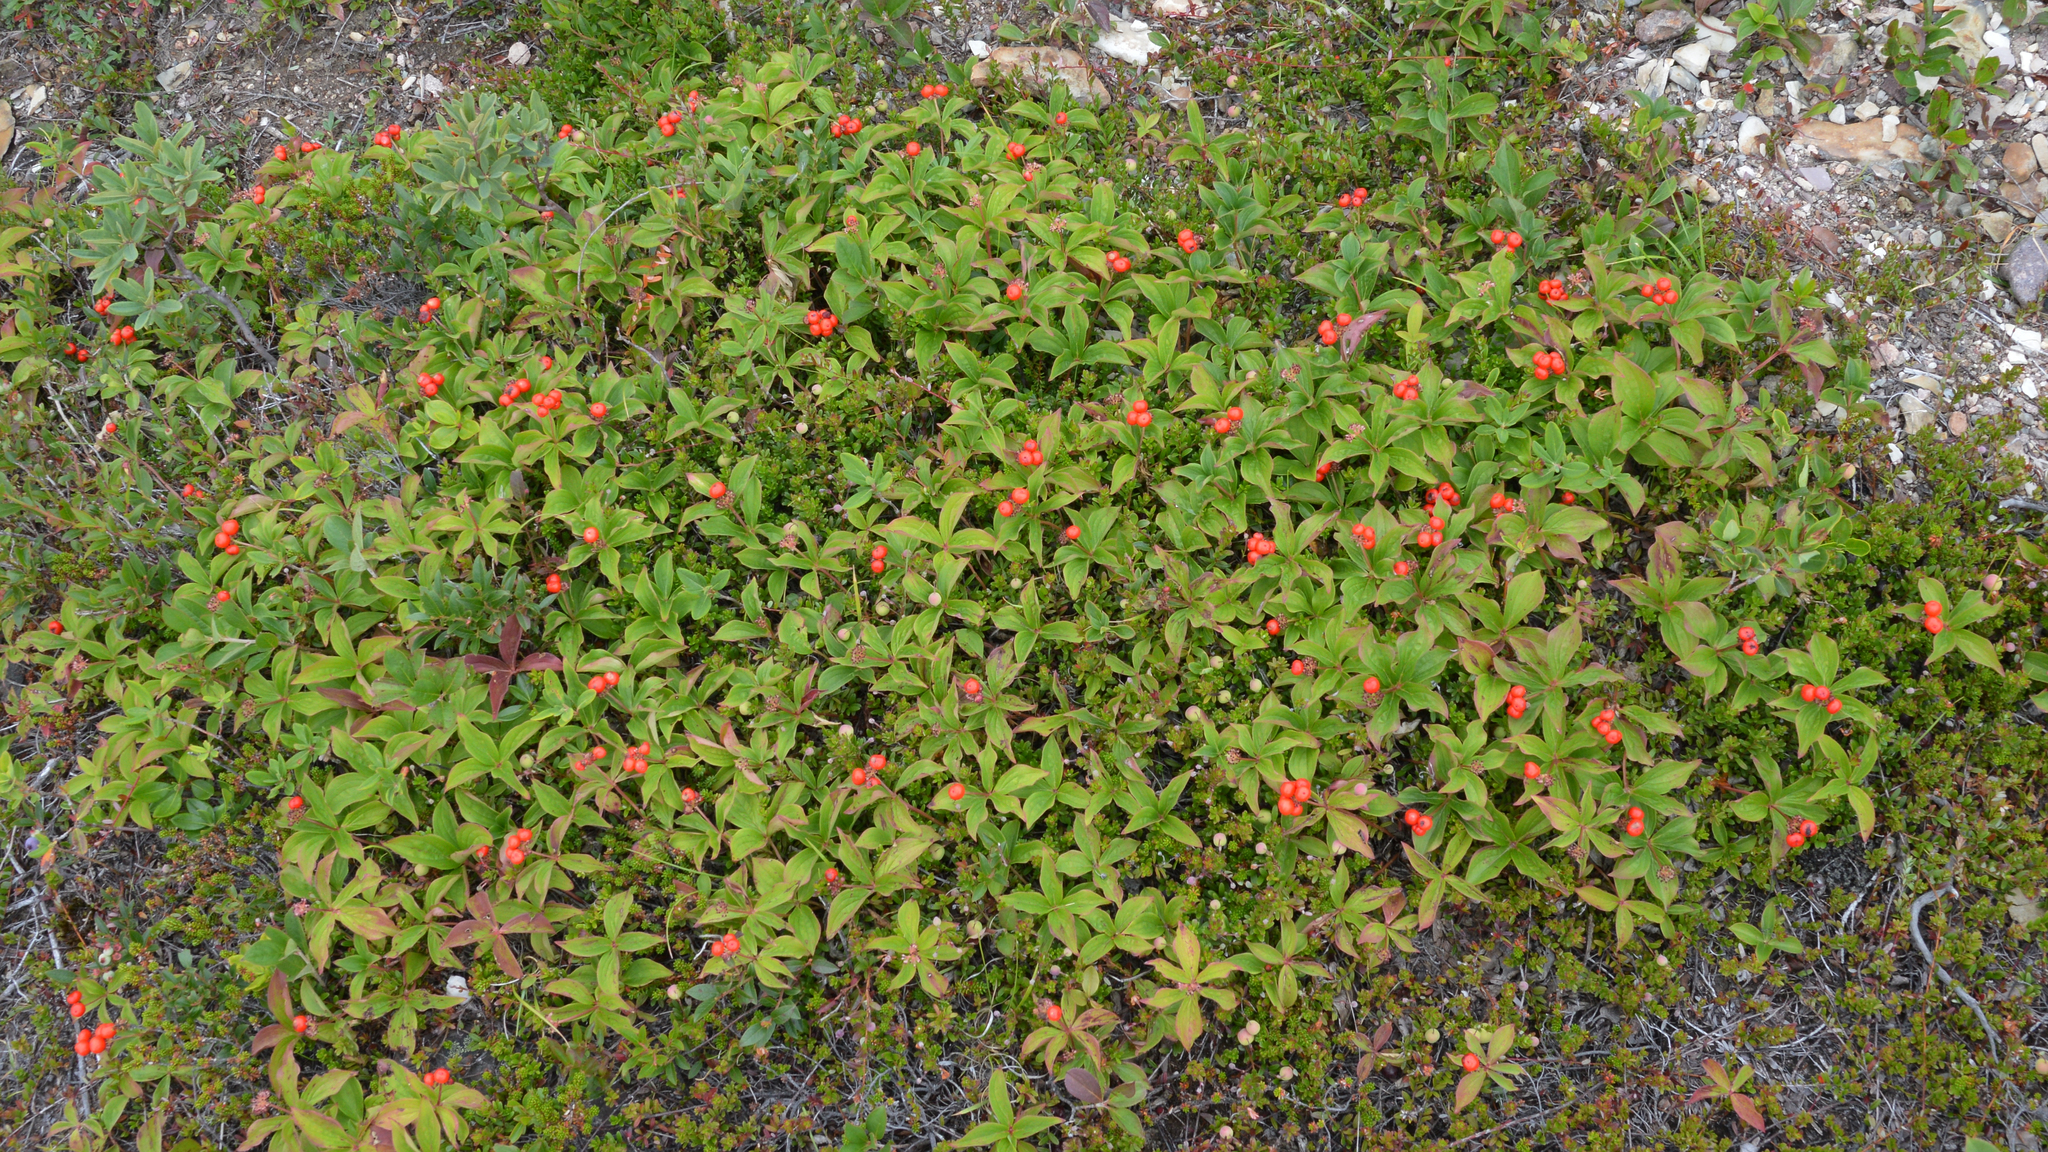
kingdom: Plantae
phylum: Tracheophyta
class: Magnoliopsida
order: Cornales
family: Cornaceae
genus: Cornus
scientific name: Cornus canadensis
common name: Creeping dogwood
